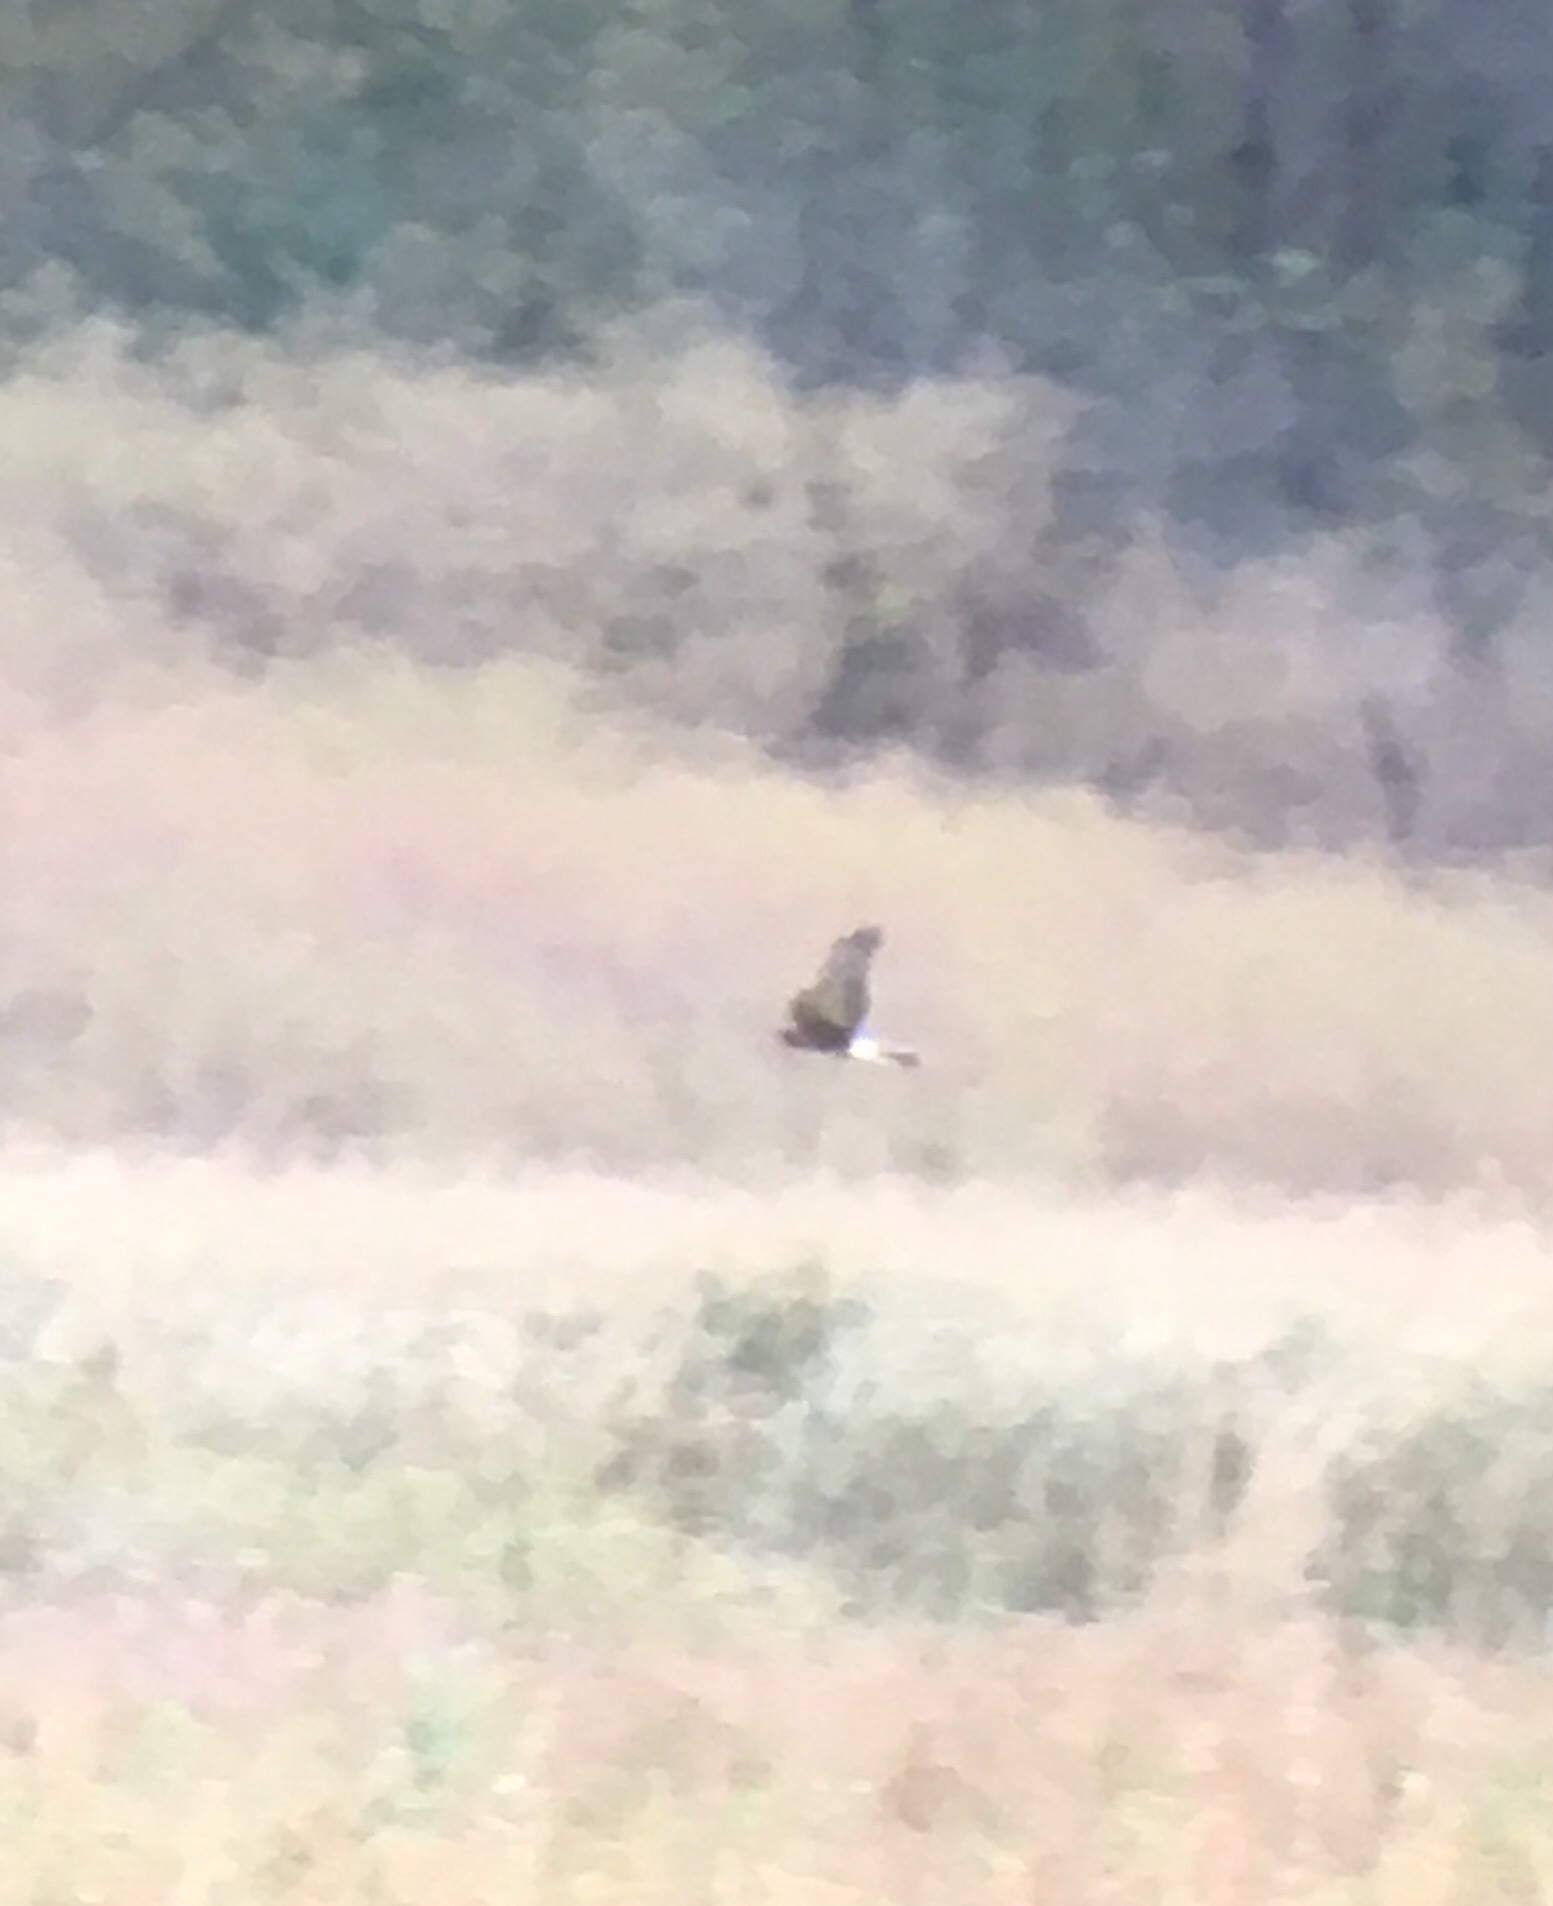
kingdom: Animalia
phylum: Chordata
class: Aves
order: Accipitriformes
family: Accipitridae
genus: Circus
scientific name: Circus cyaneus
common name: Hen harrier
